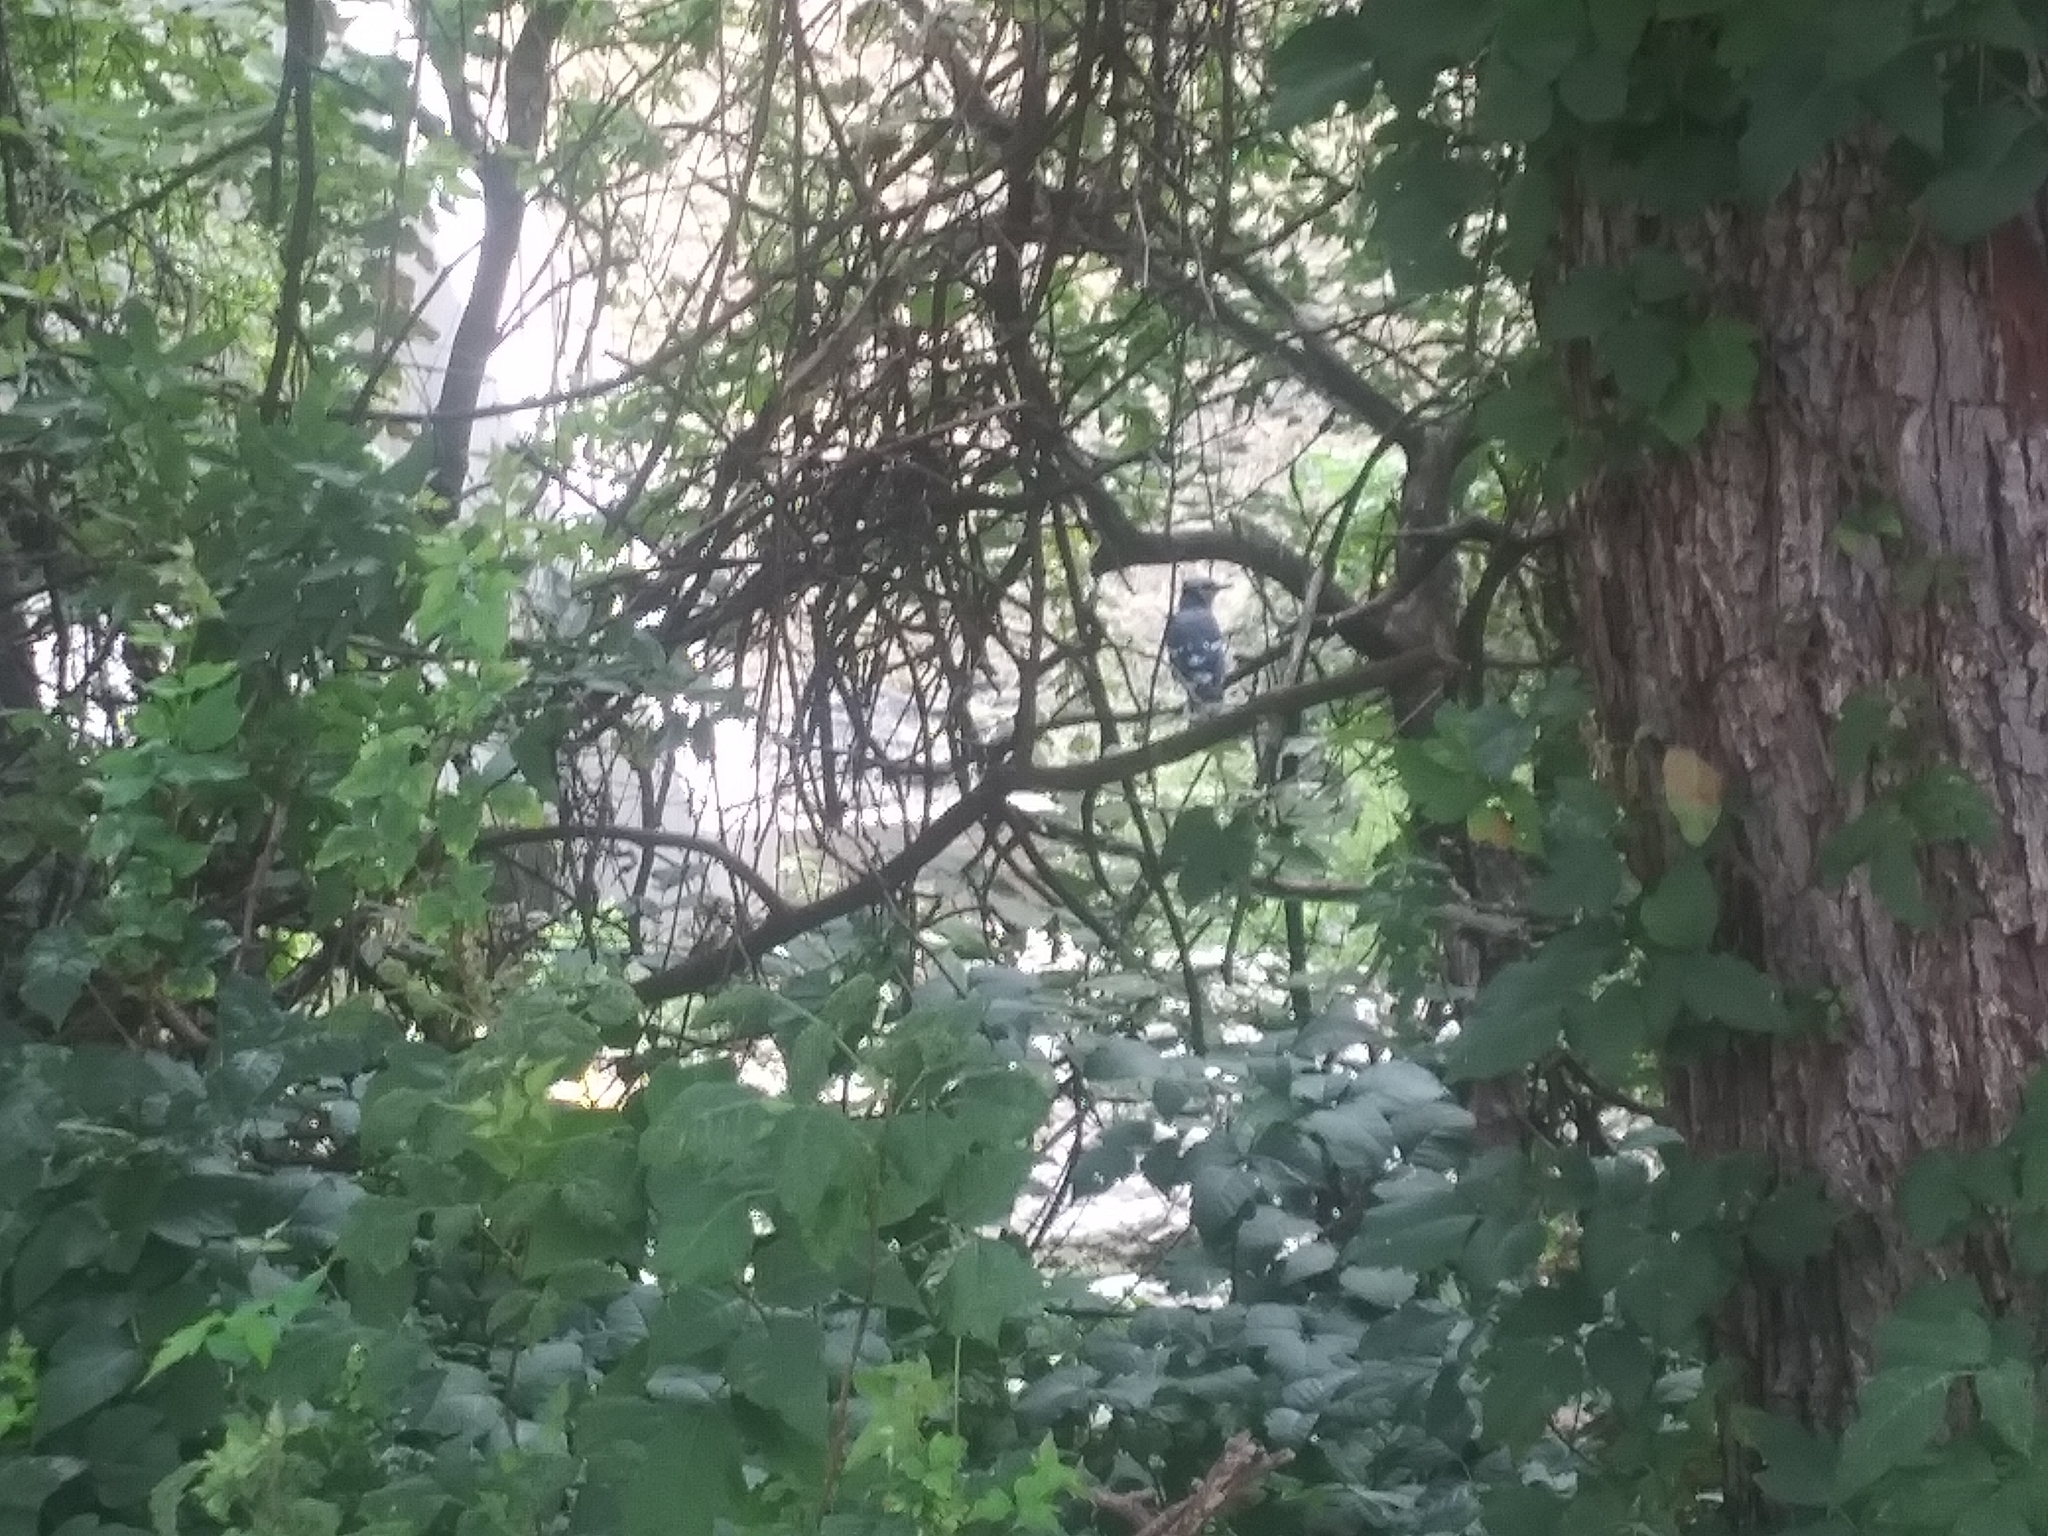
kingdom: Animalia
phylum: Chordata
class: Aves
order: Passeriformes
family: Corvidae
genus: Cyanocitta
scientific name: Cyanocitta cristata
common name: Blue jay
